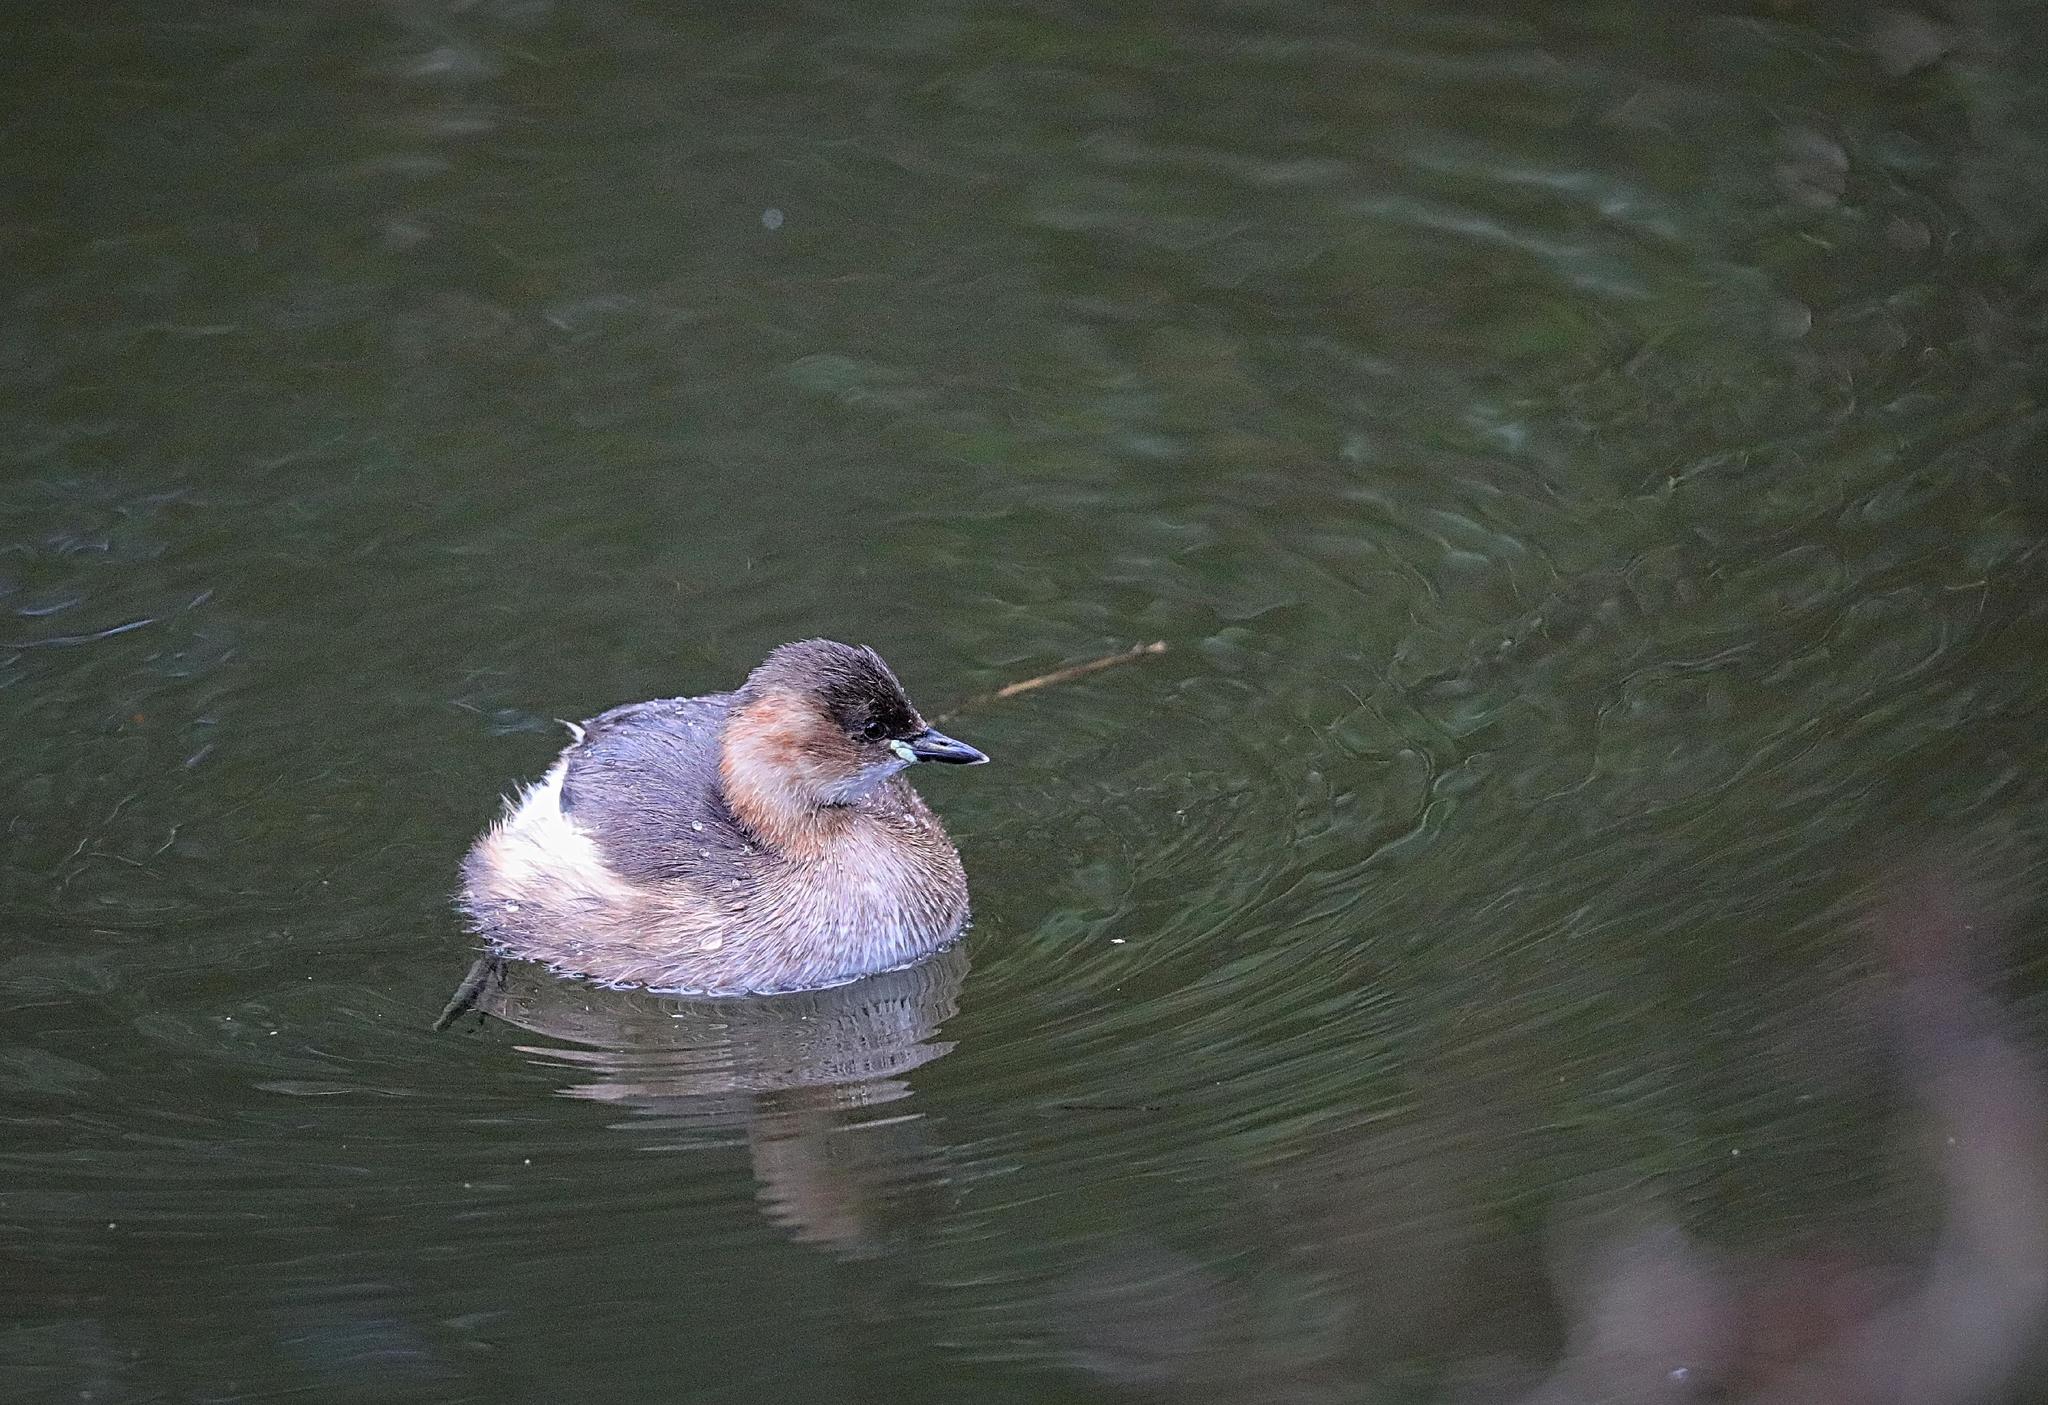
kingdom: Animalia
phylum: Chordata
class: Aves
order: Podicipediformes
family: Podicipedidae
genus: Tachybaptus
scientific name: Tachybaptus ruficollis
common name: Little grebe
